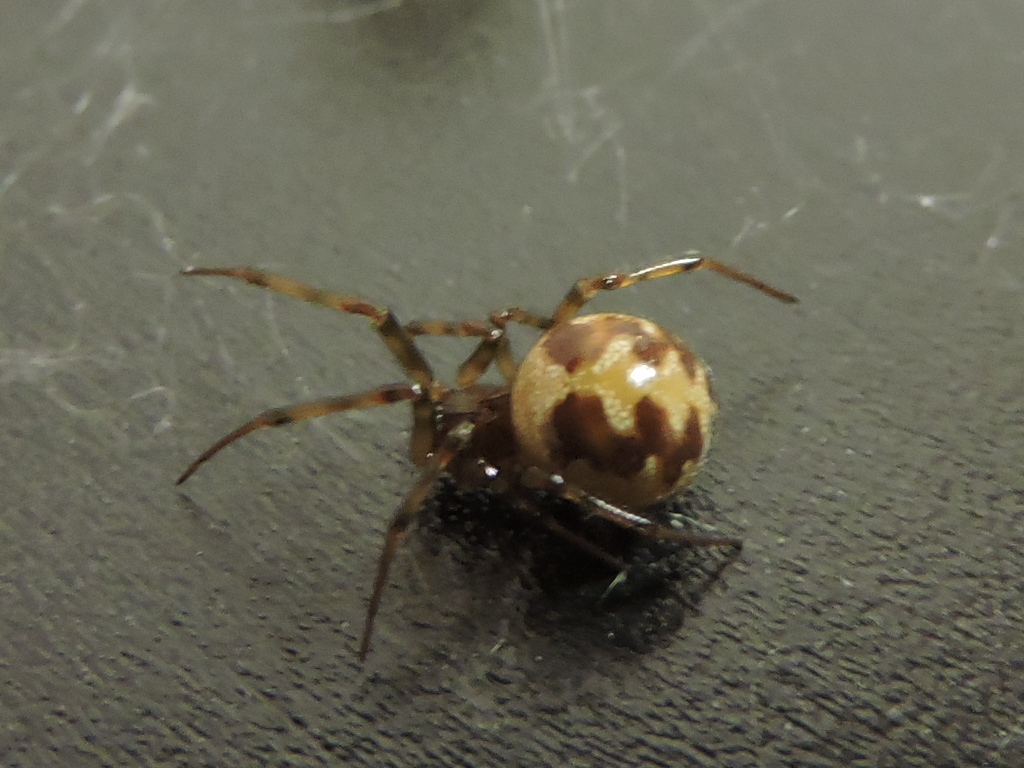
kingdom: Animalia
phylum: Arthropoda
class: Arachnida
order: Araneae
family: Theridiidae
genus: Steatoda
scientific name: Steatoda triangulosa
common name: Triangulate bud spider
